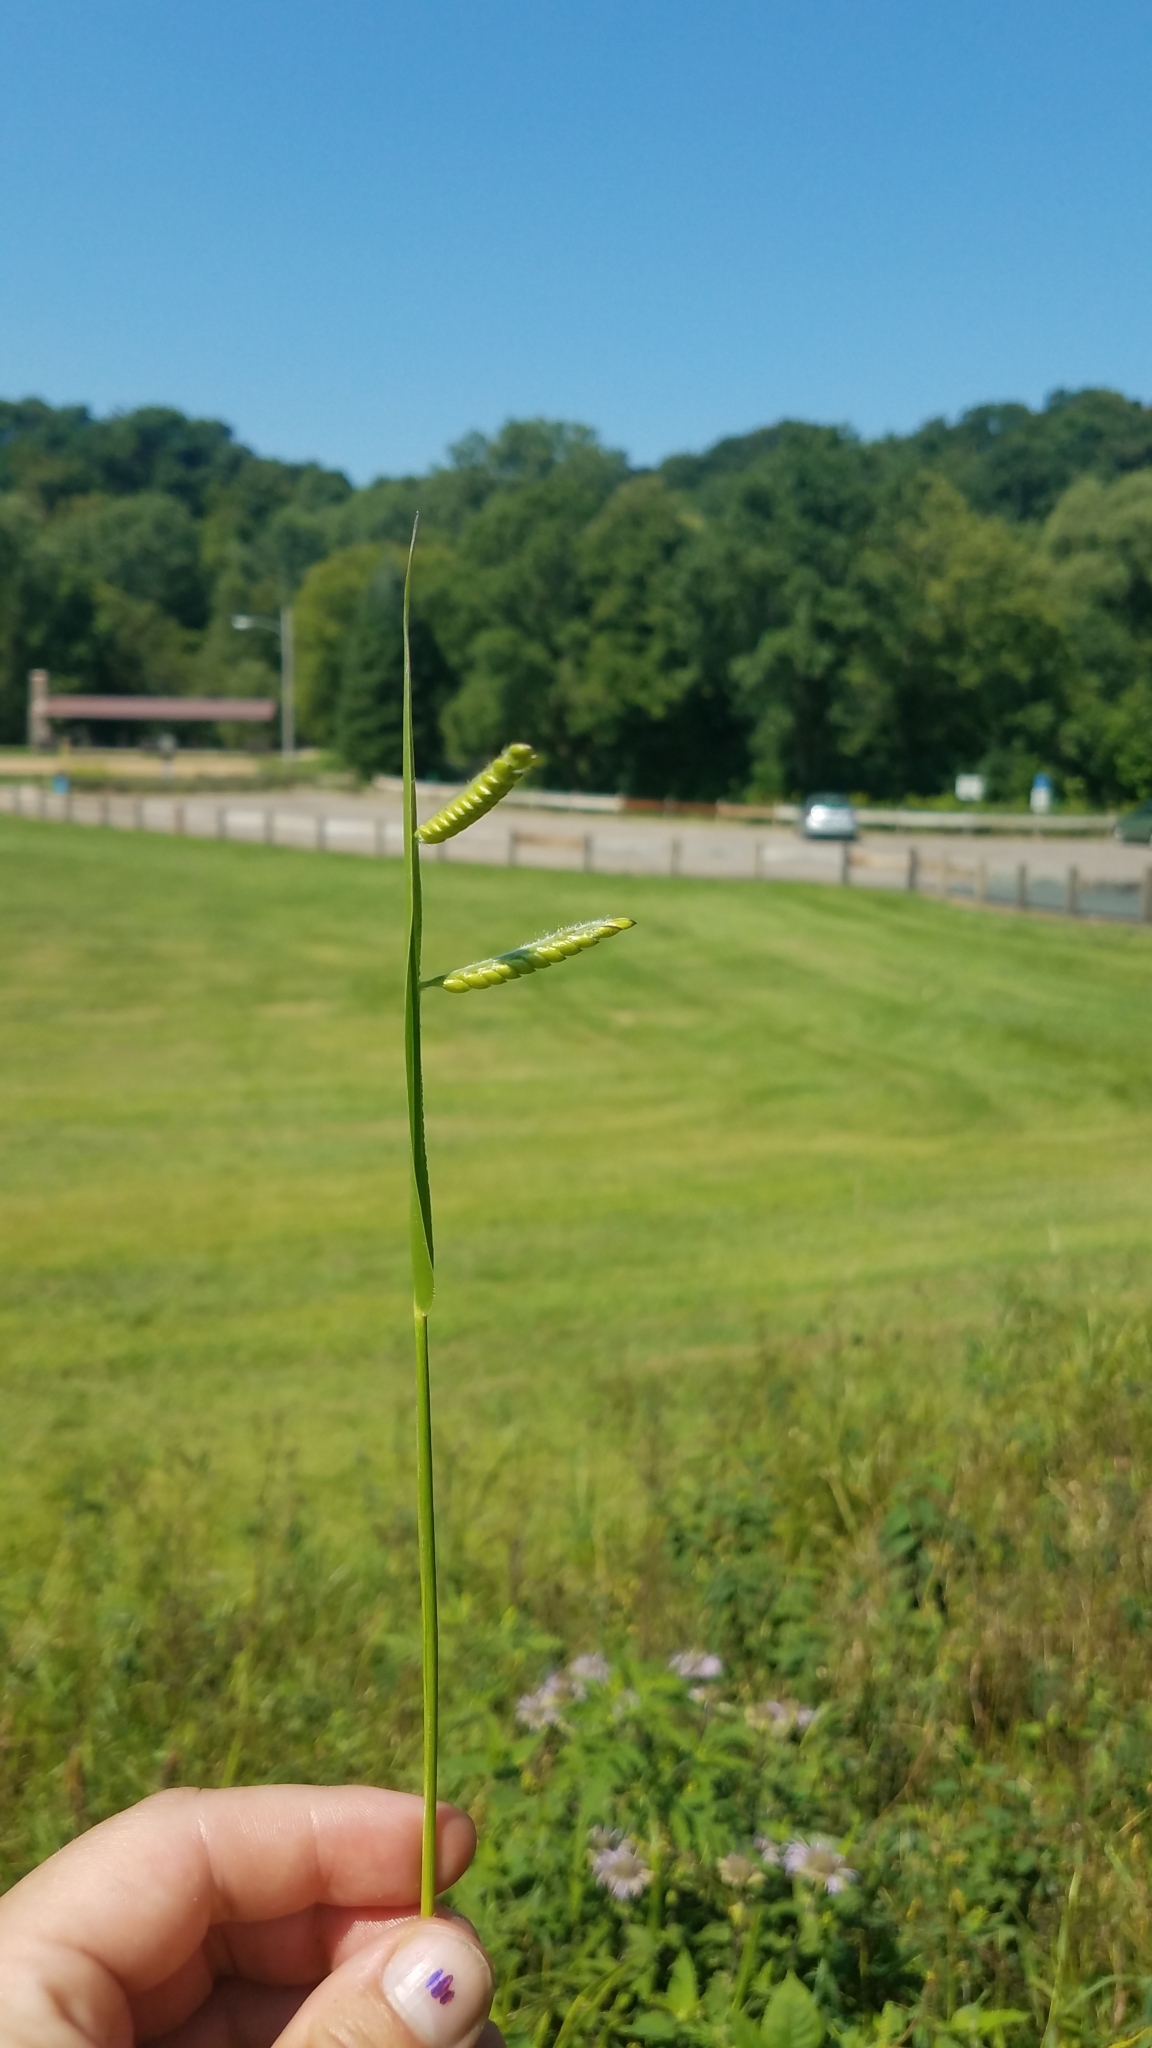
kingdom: Plantae
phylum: Tracheophyta
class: Liliopsida
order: Poales
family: Poaceae
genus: Eriochloa
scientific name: Eriochloa villosa
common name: Hairy cupgrass
